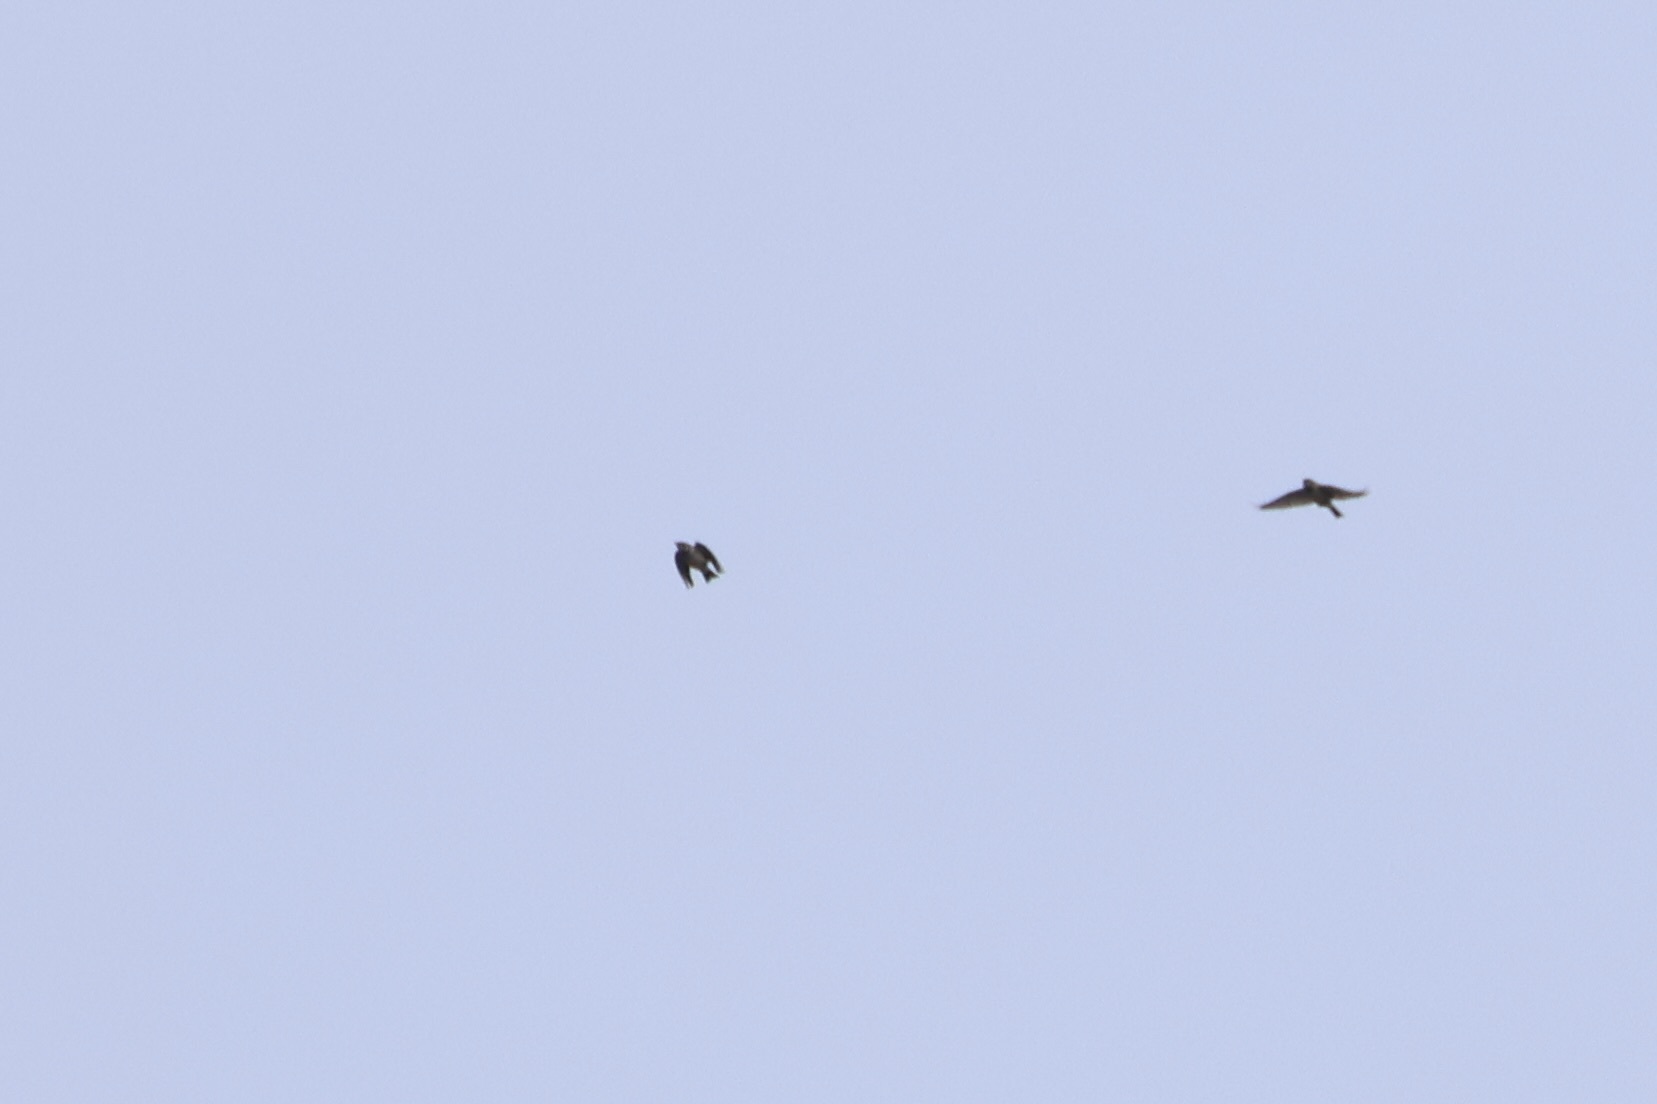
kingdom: Animalia
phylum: Chordata
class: Aves
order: Passeriformes
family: Alaudidae
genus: Eremophila
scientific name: Eremophila alpestris
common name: Horned lark
